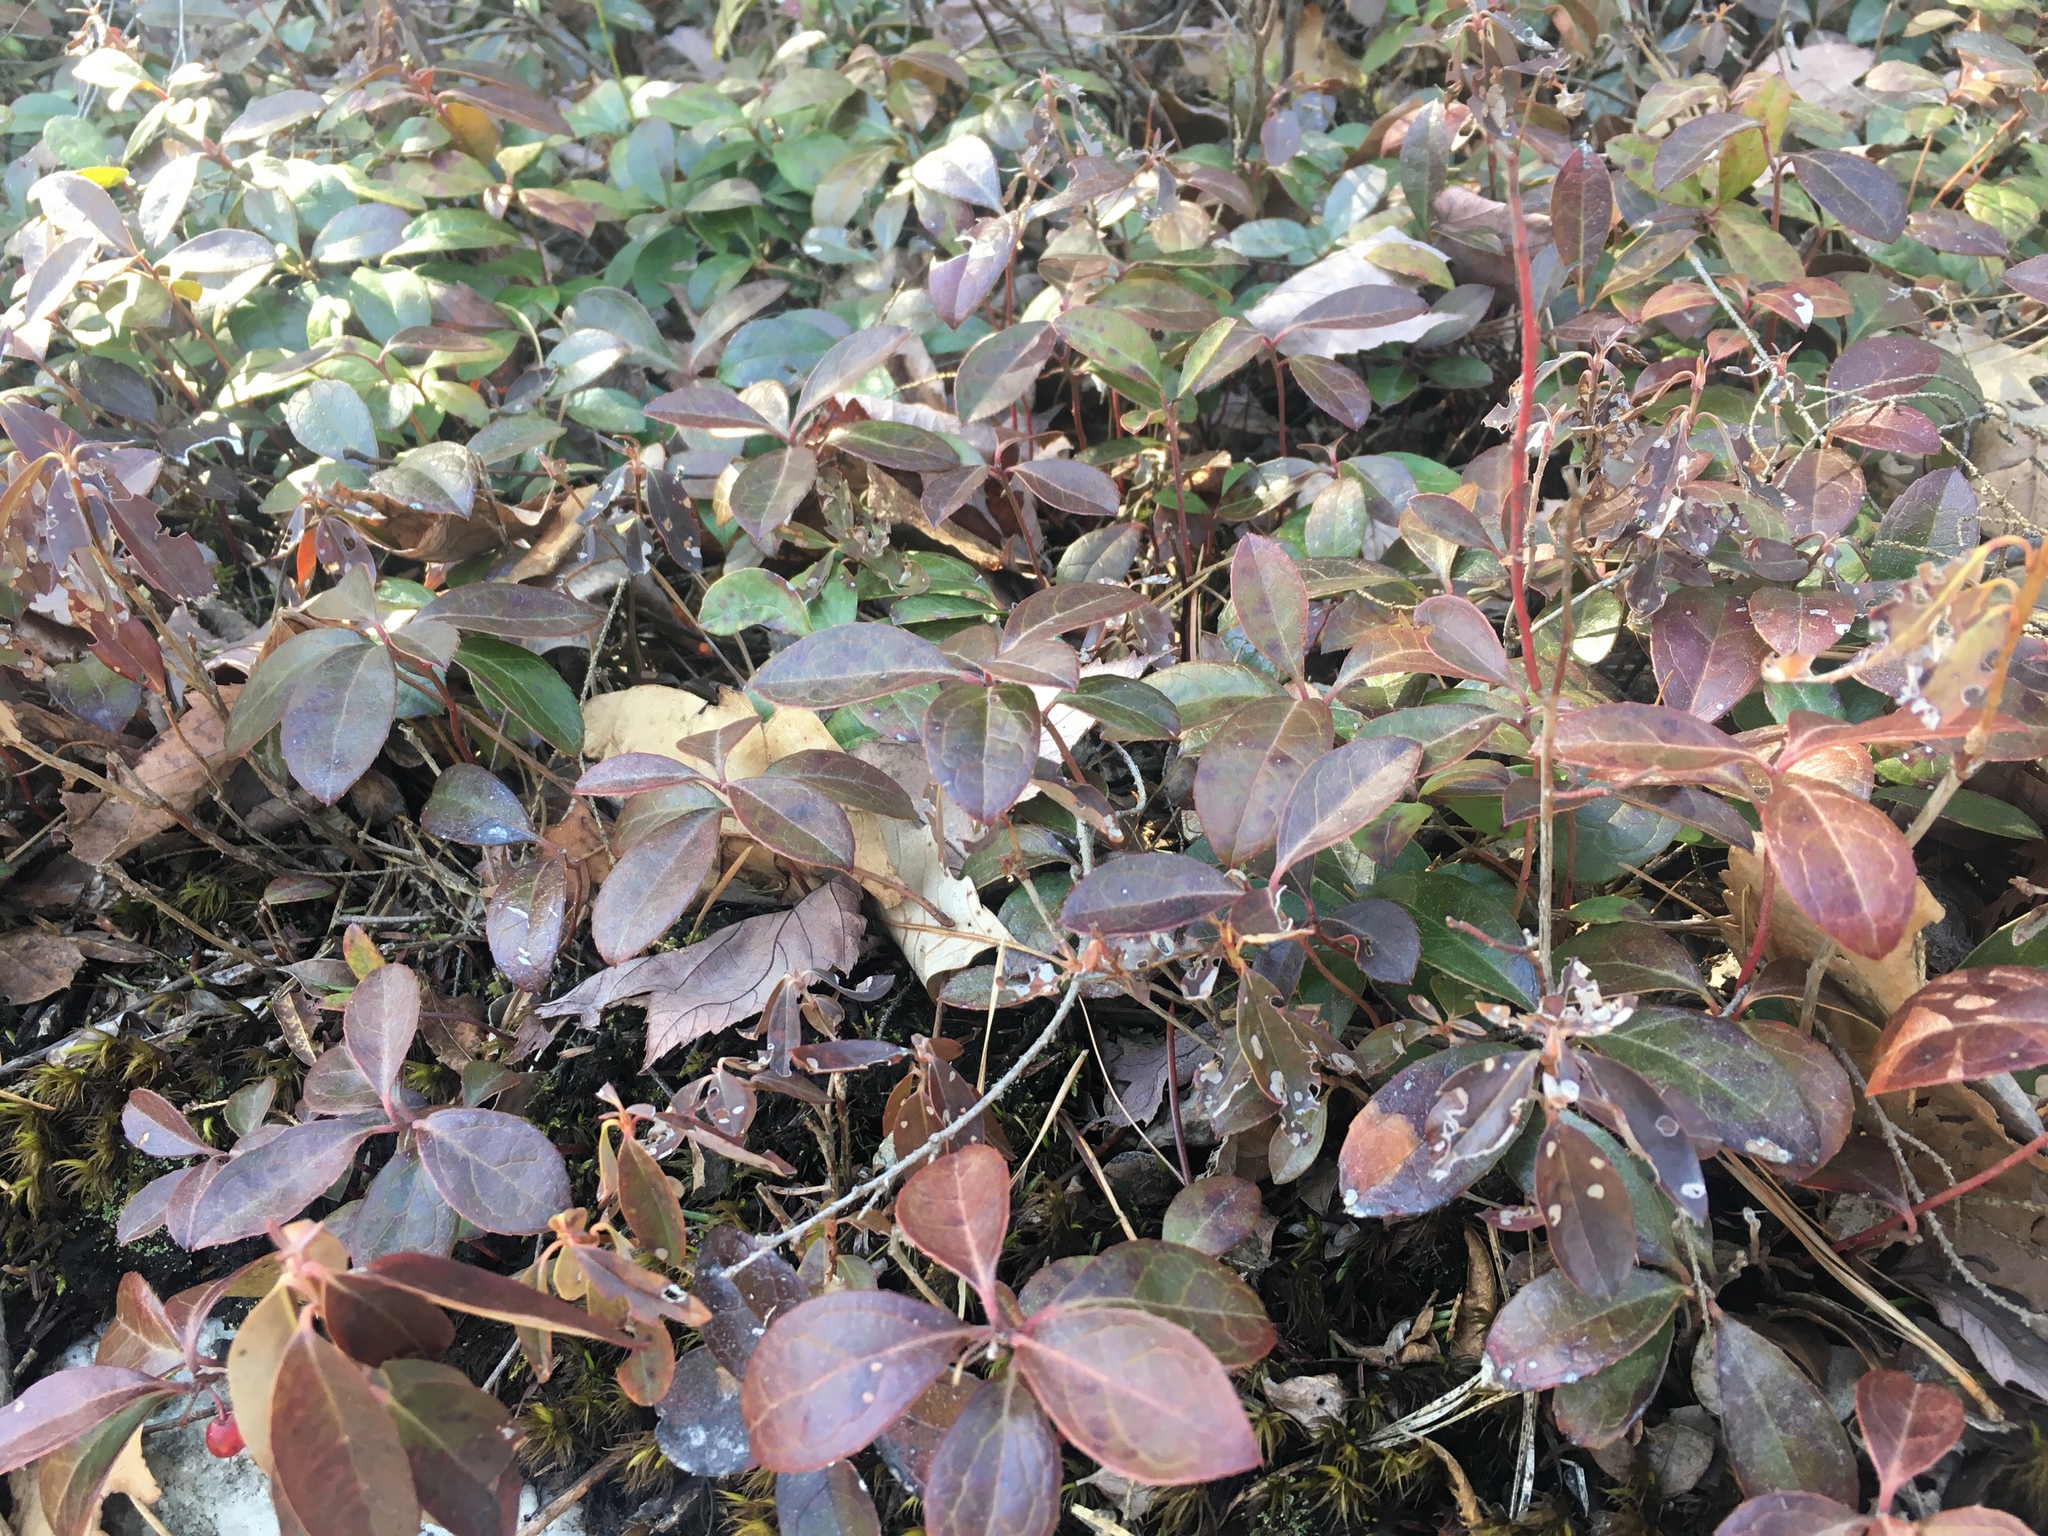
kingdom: Plantae
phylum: Tracheophyta
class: Magnoliopsida
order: Ericales
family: Ericaceae
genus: Gaultheria
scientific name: Gaultheria procumbens
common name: Checkerberry
